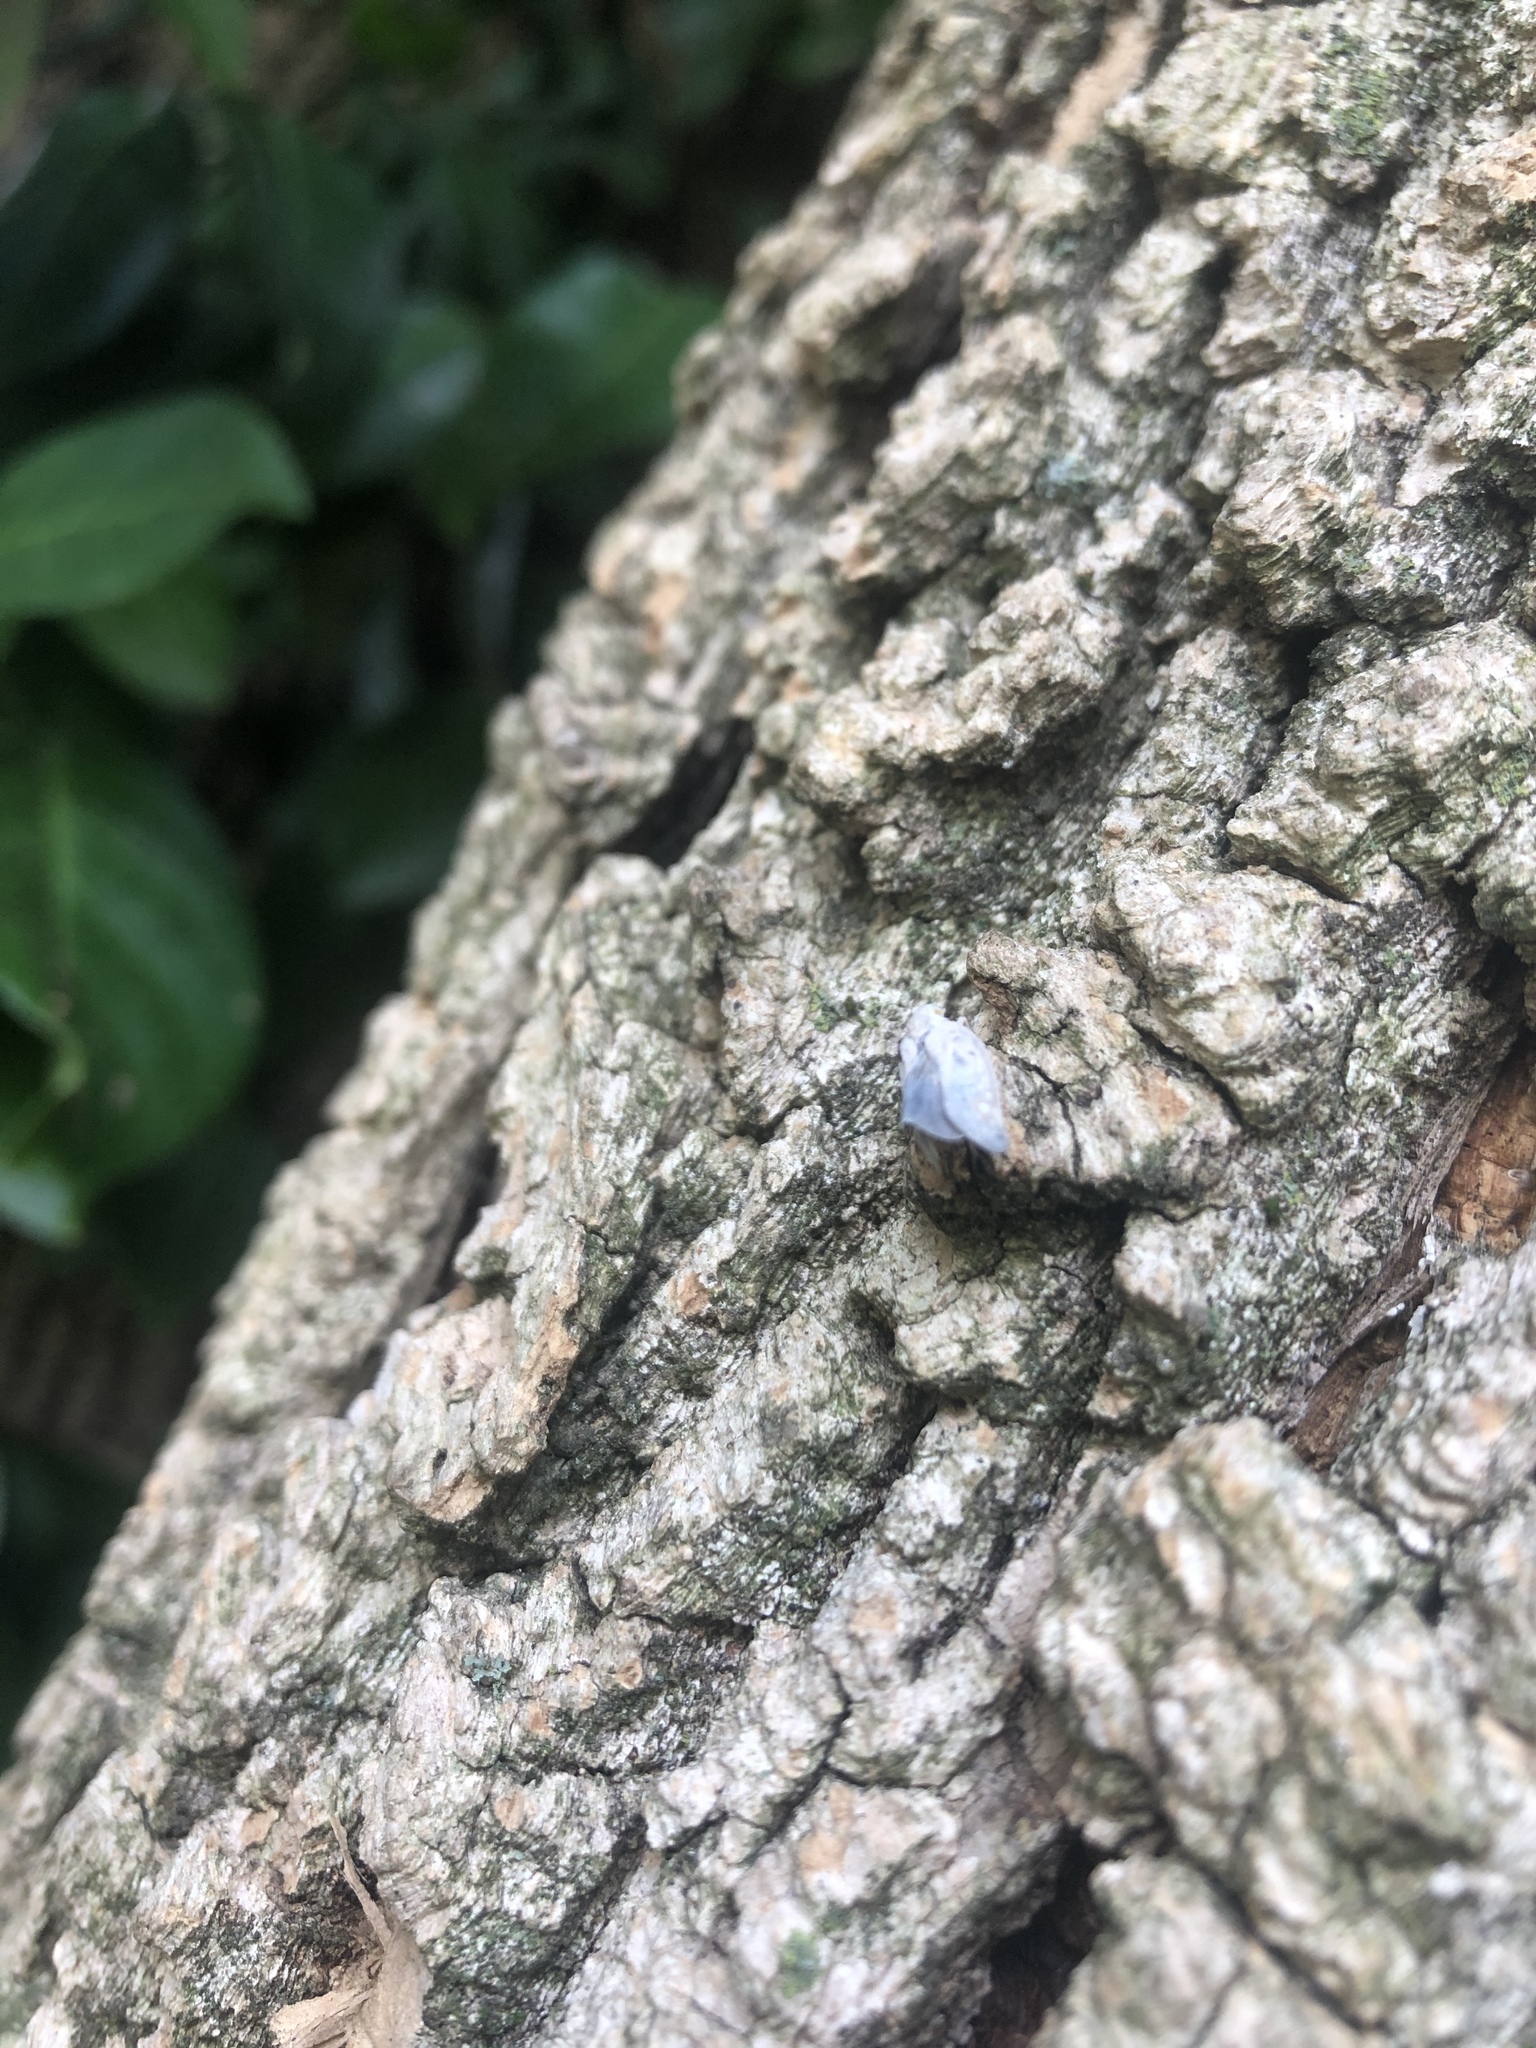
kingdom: Animalia
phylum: Arthropoda
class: Insecta
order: Hemiptera
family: Flatidae
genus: Metcalfa
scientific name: Metcalfa pruinosa
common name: Citrus flatid planthopper
